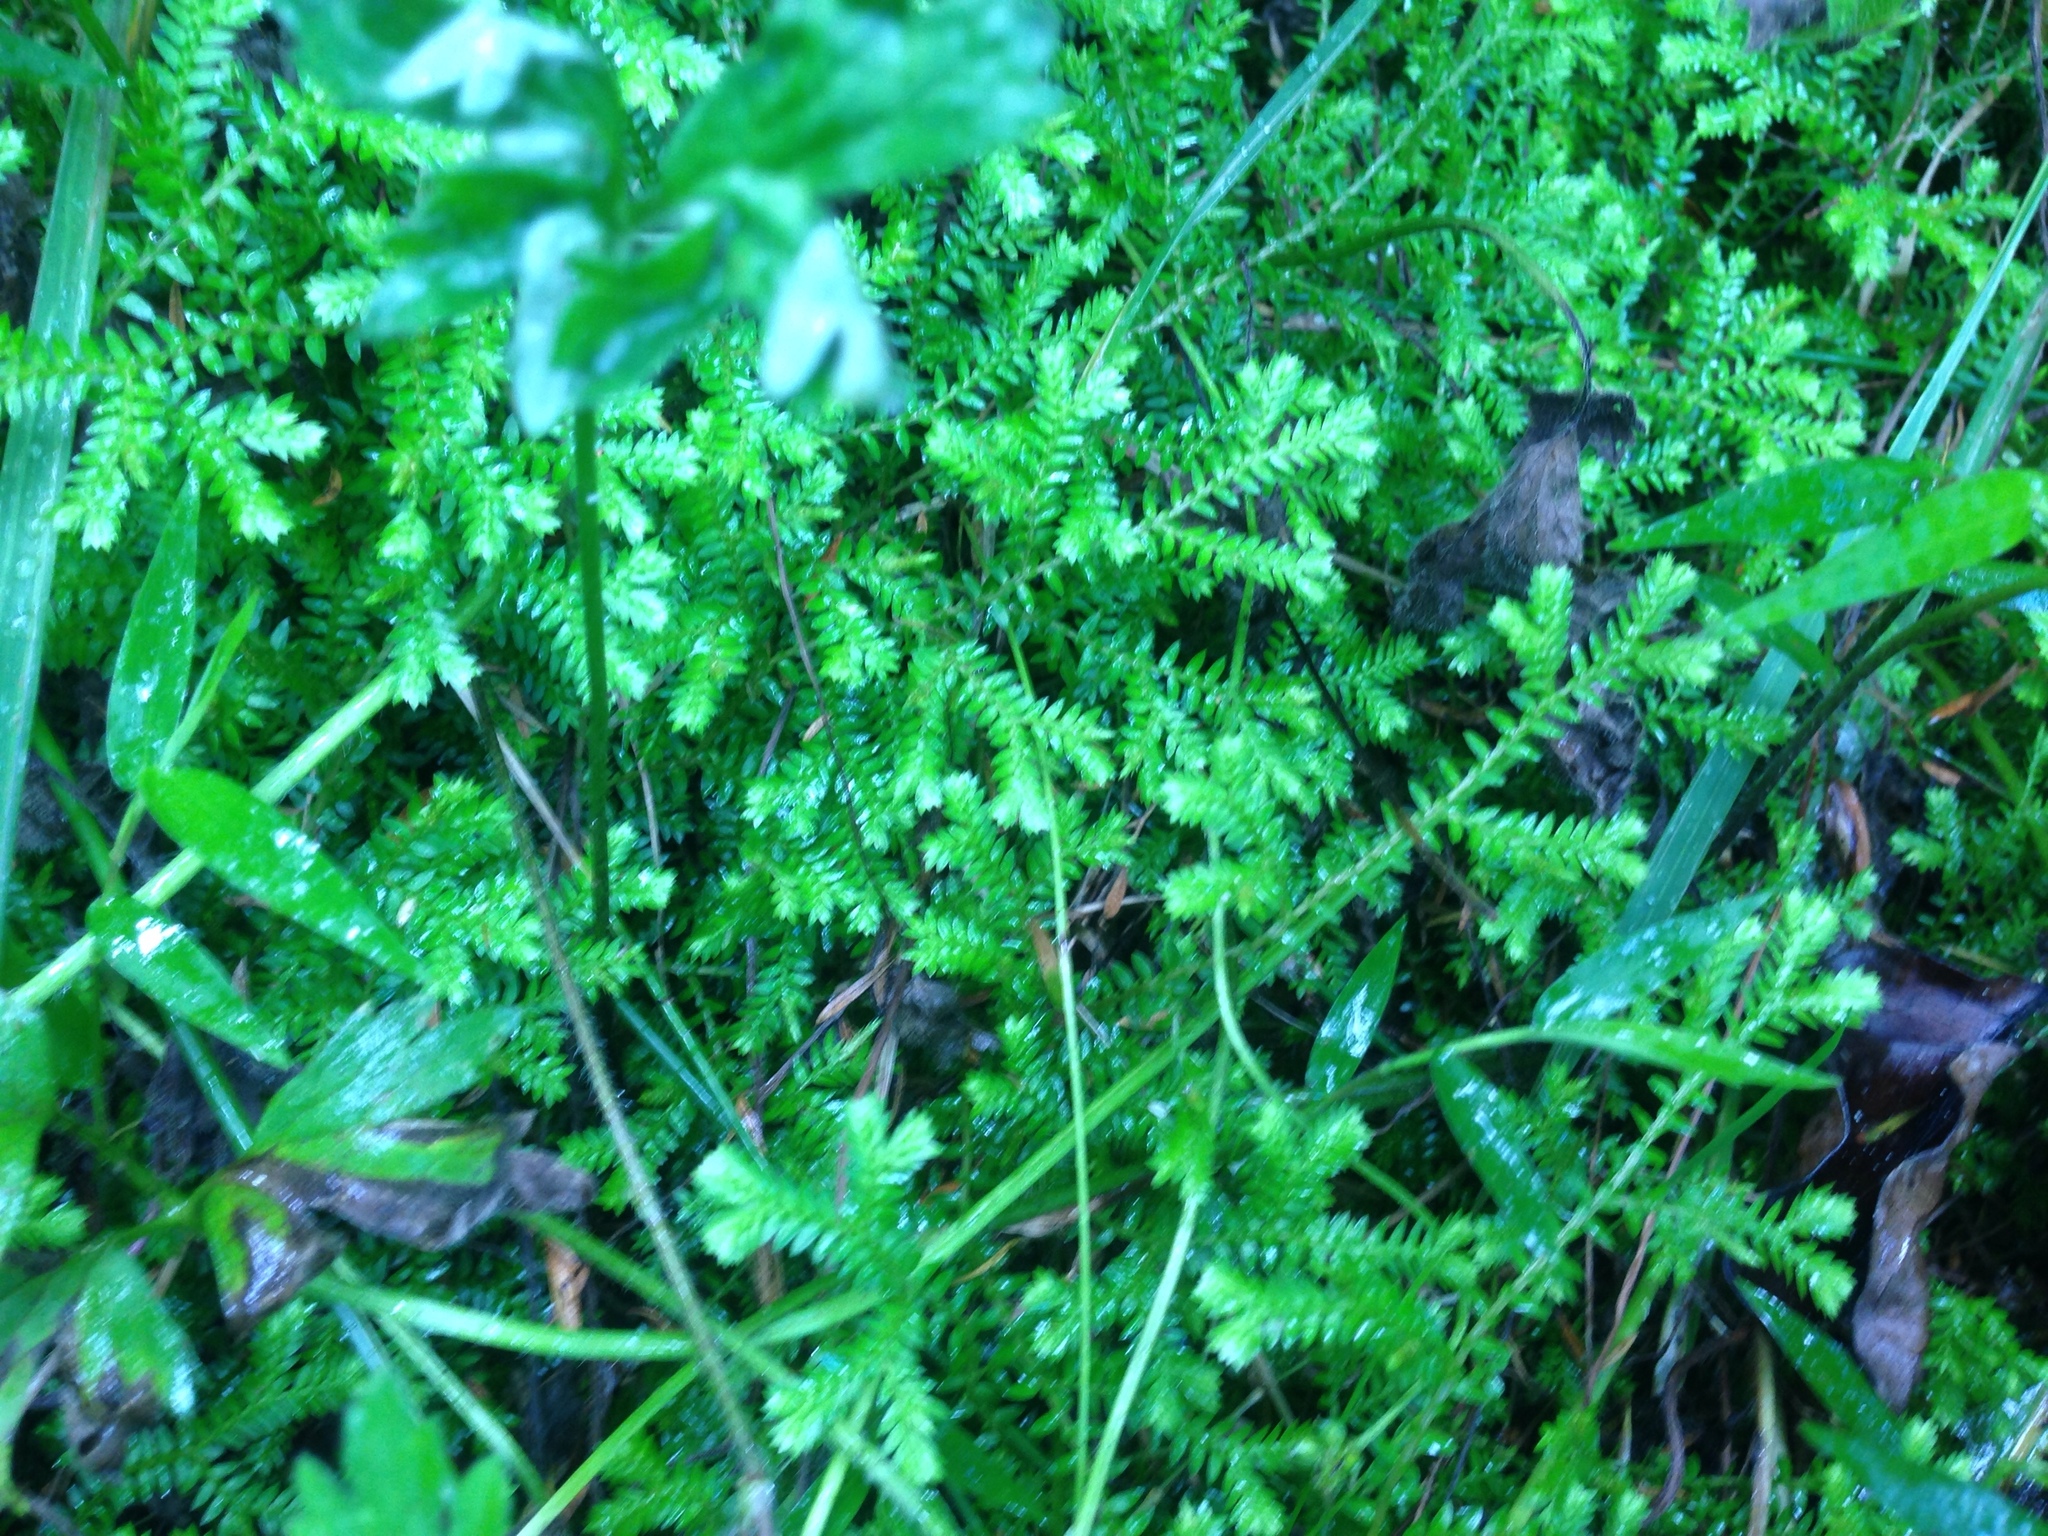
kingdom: Plantae
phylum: Tracheophyta
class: Lycopodiopsida
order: Selaginellales
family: Selaginellaceae
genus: Selaginella
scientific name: Selaginella kraussiana
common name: Krauss' spikemoss
